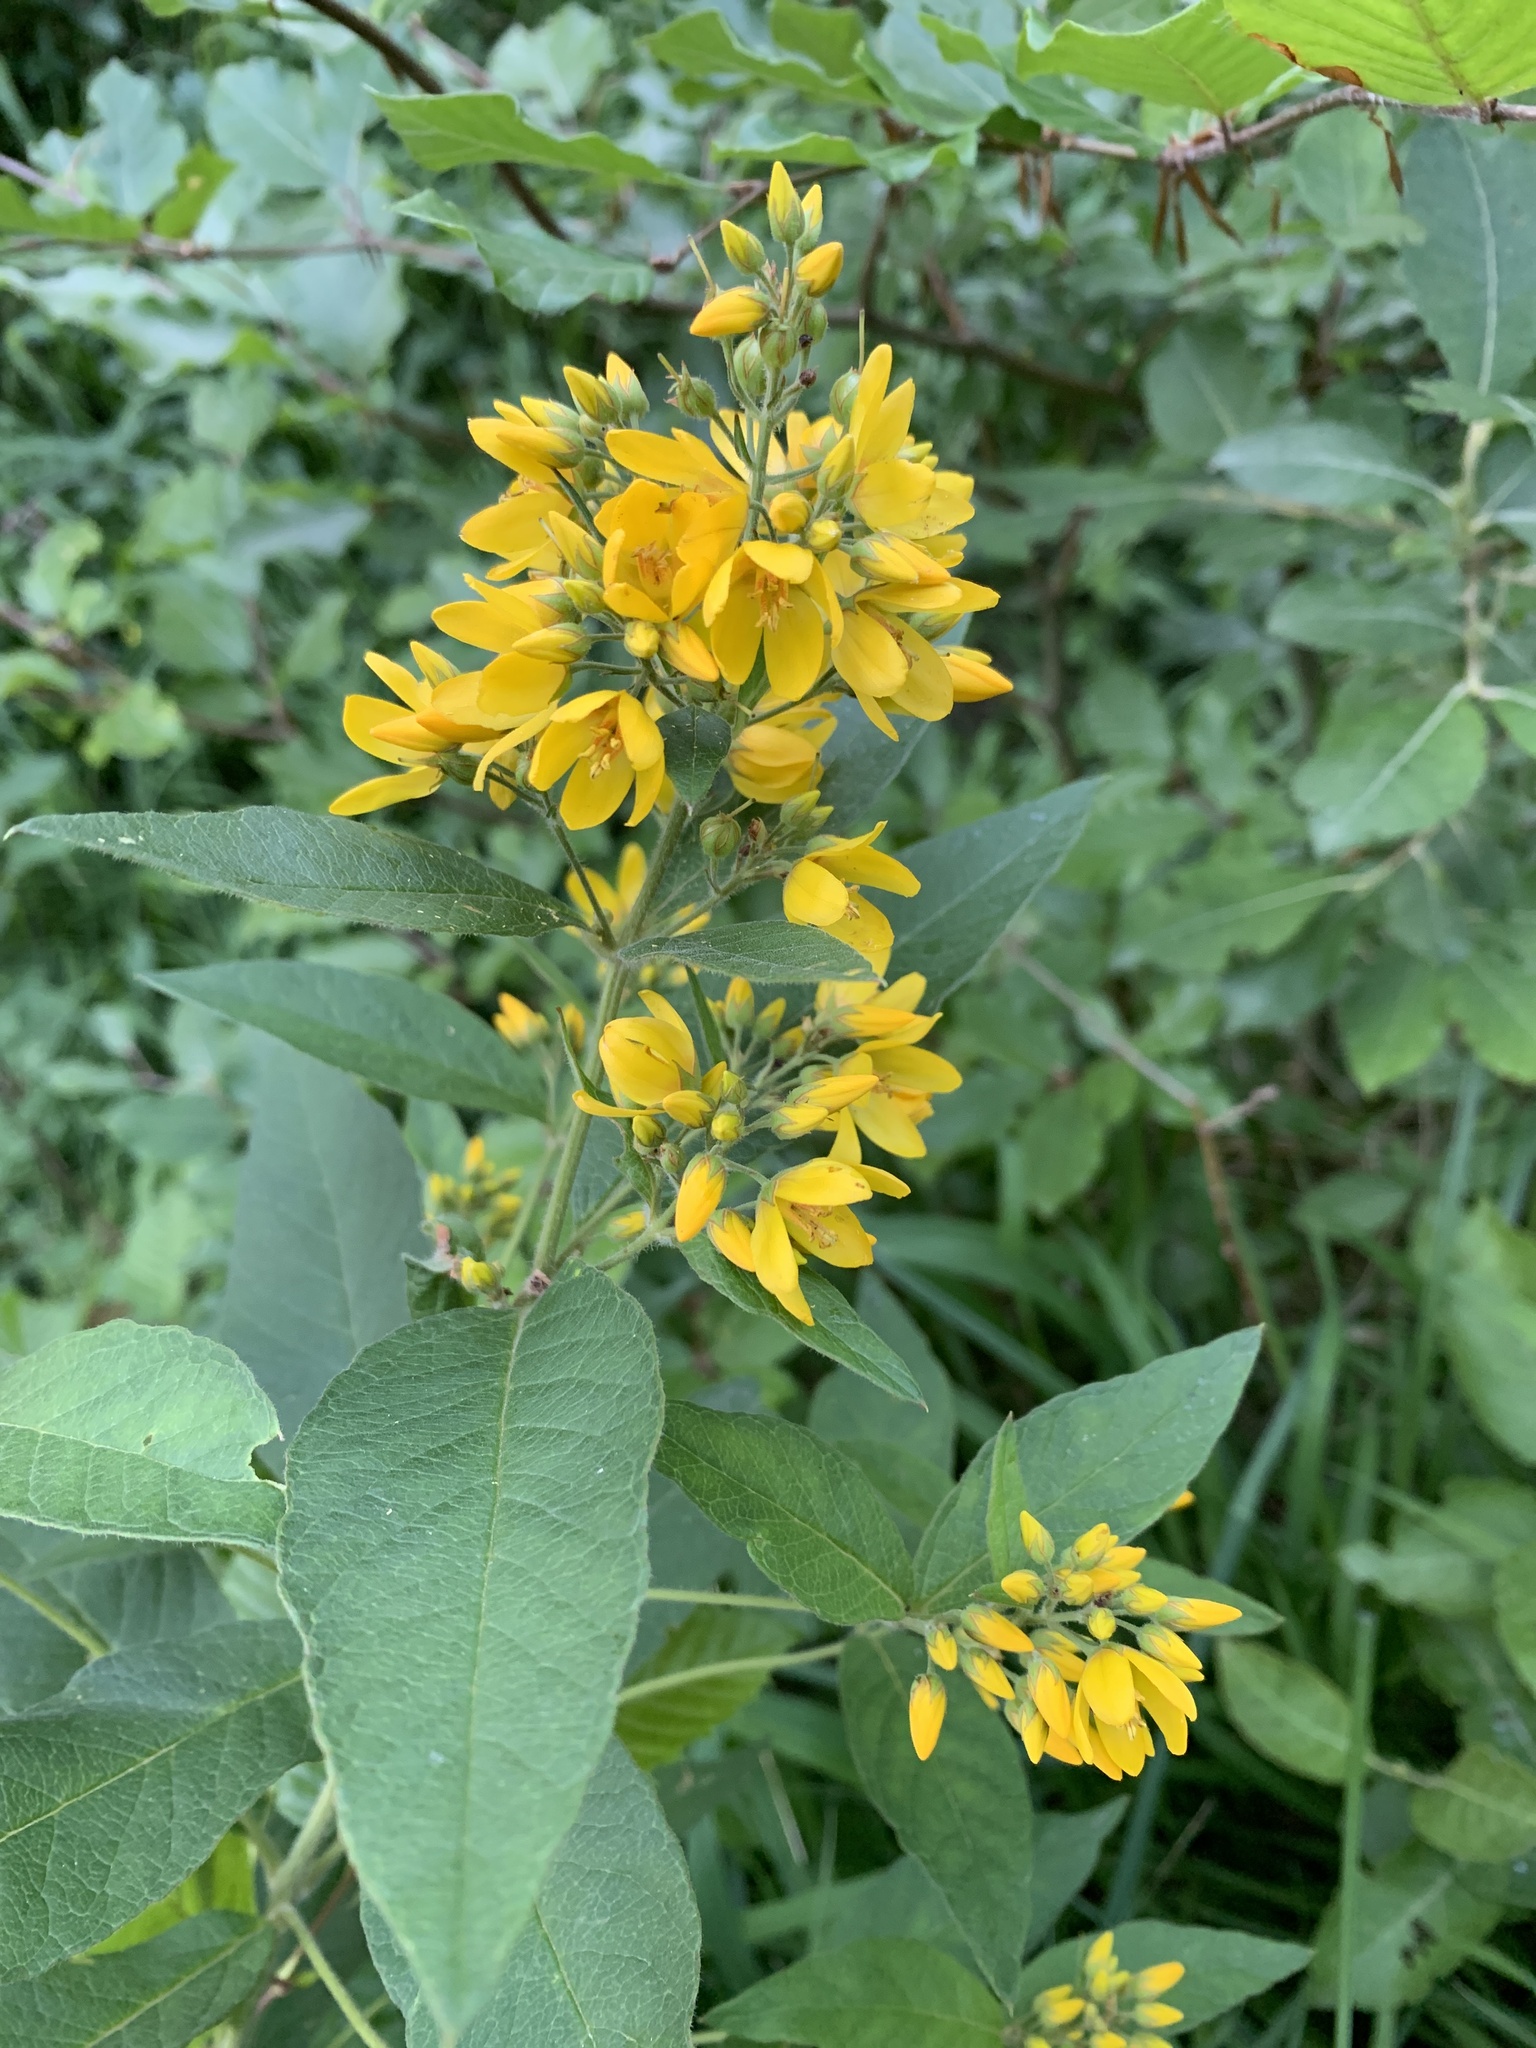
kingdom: Plantae
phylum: Tracheophyta
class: Magnoliopsida
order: Ericales
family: Primulaceae
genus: Lysimachia
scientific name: Lysimachia vulgaris
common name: Yellow loosestrife
